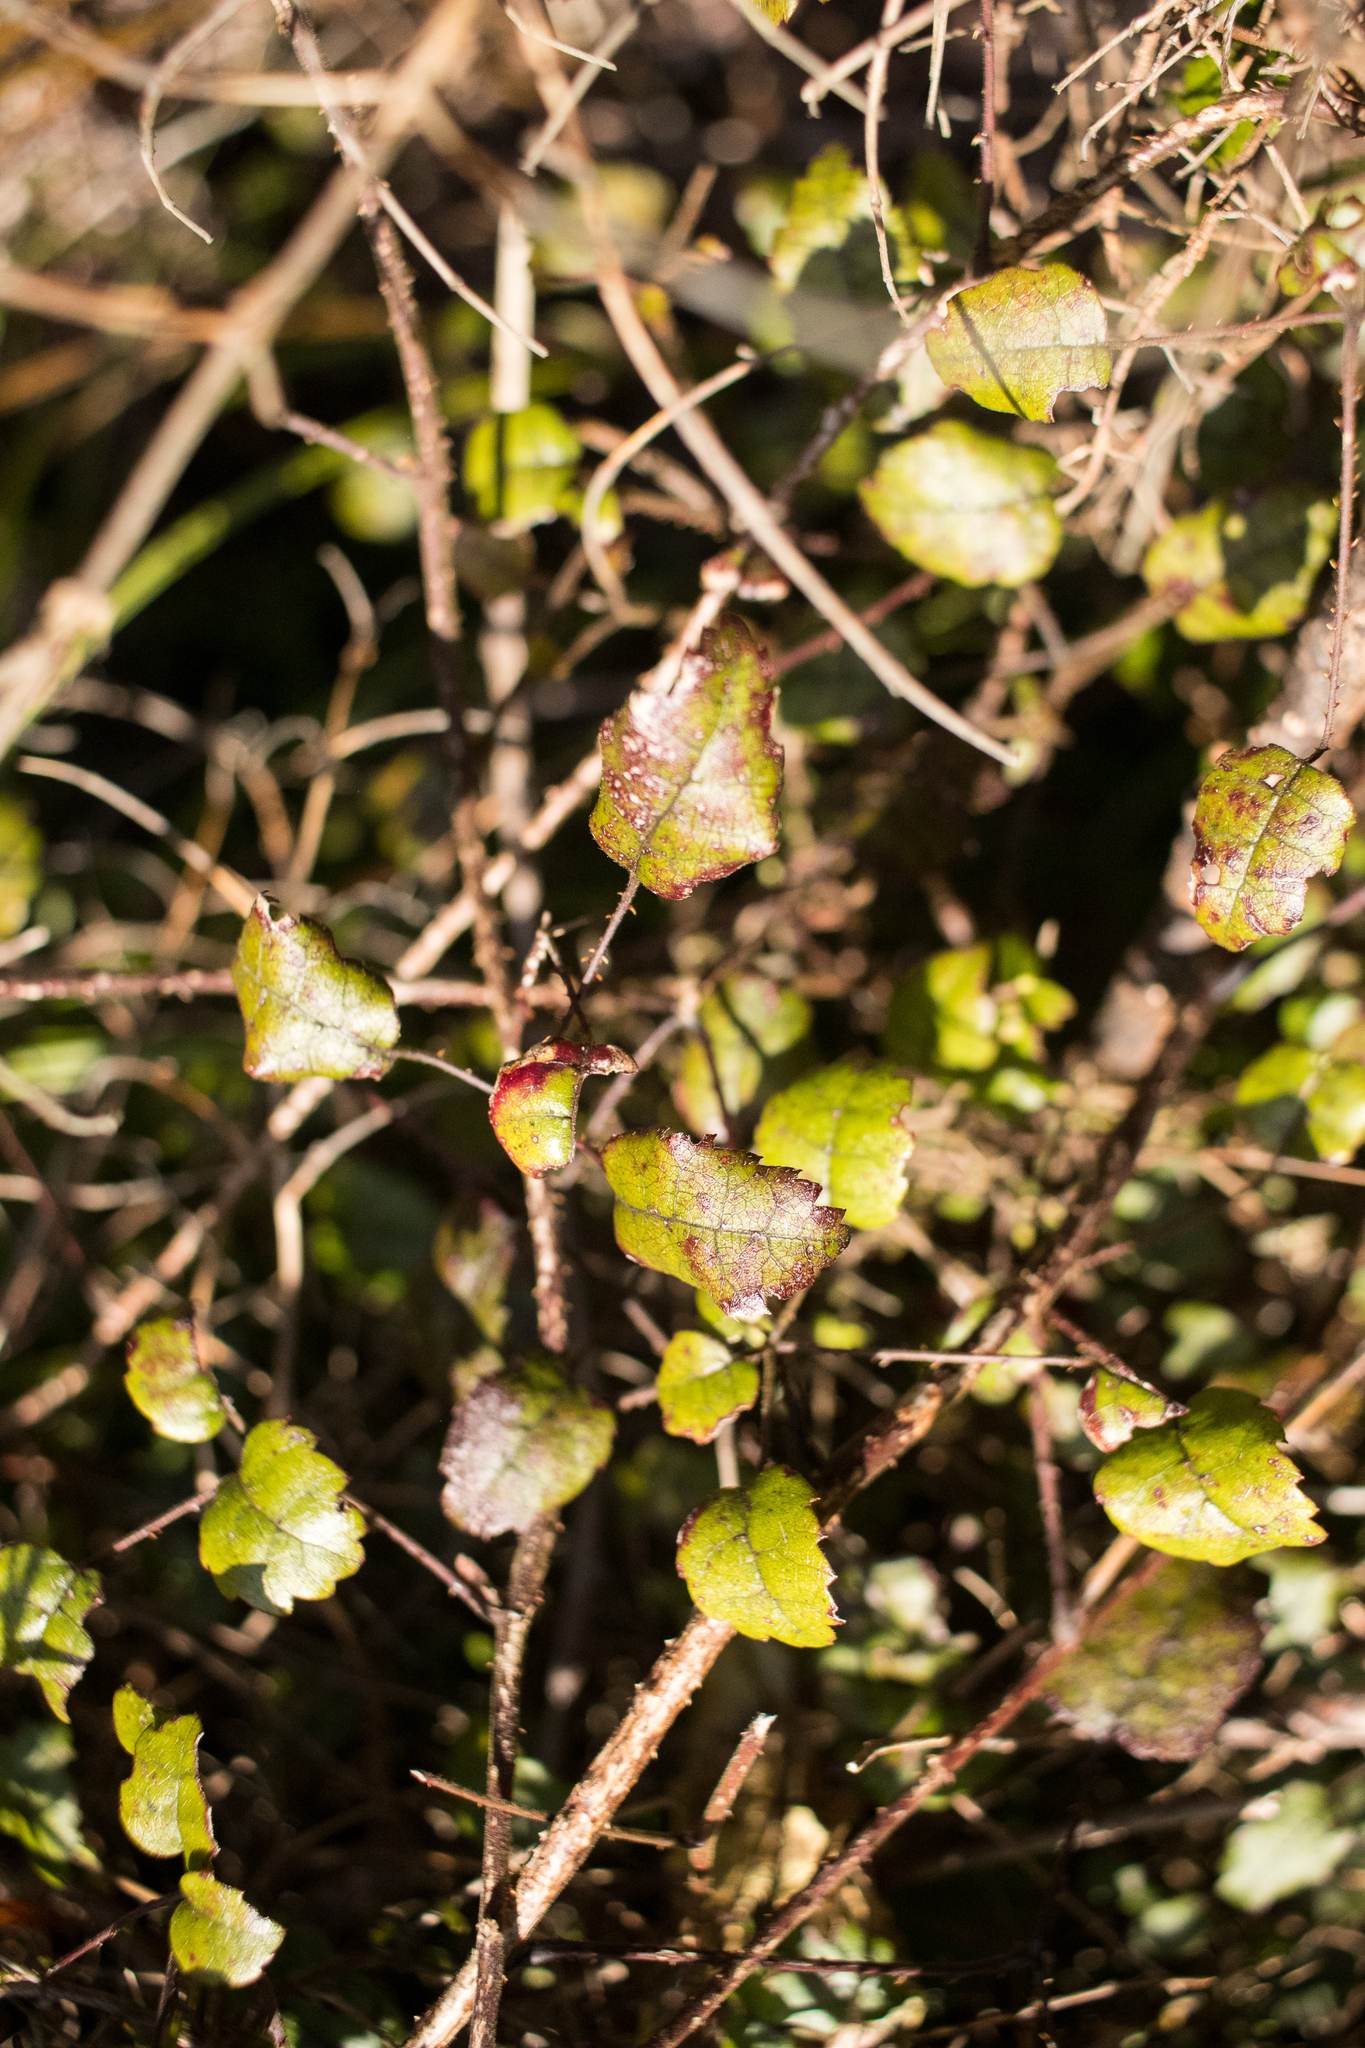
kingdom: Plantae
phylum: Tracheophyta
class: Magnoliopsida
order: Rosales
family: Rosaceae
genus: Rubus
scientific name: Rubus australis
